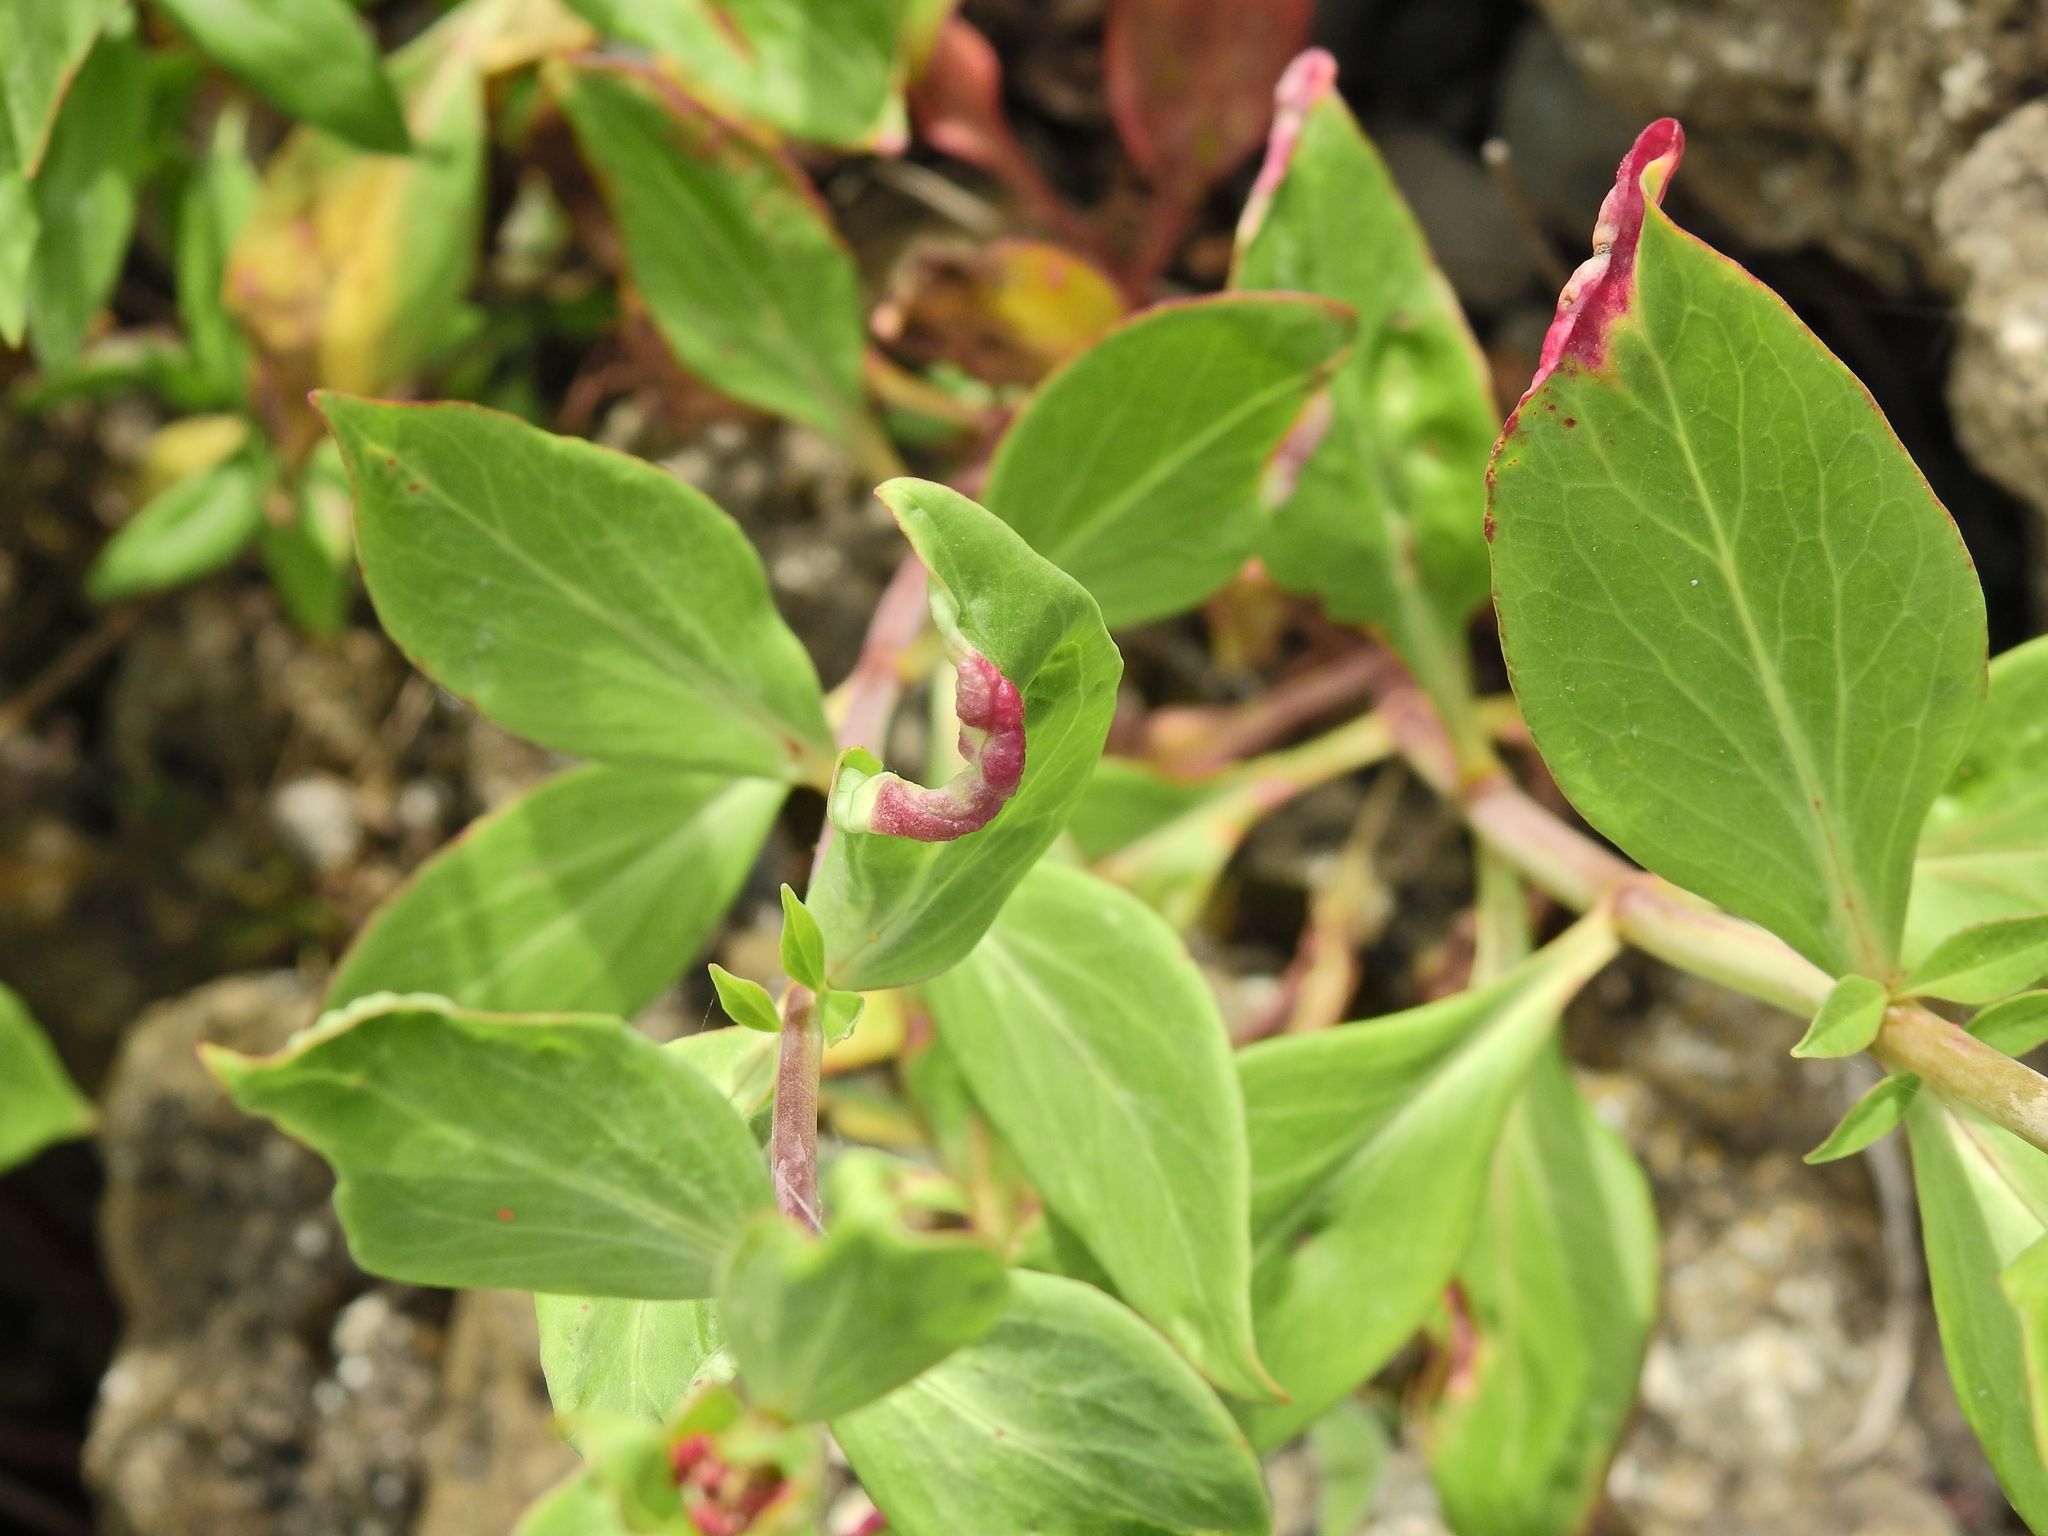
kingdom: Animalia
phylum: Arthropoda
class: Insecta
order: Hemiptera
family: Triozidae
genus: Trioza
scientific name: Trioza centranthi
